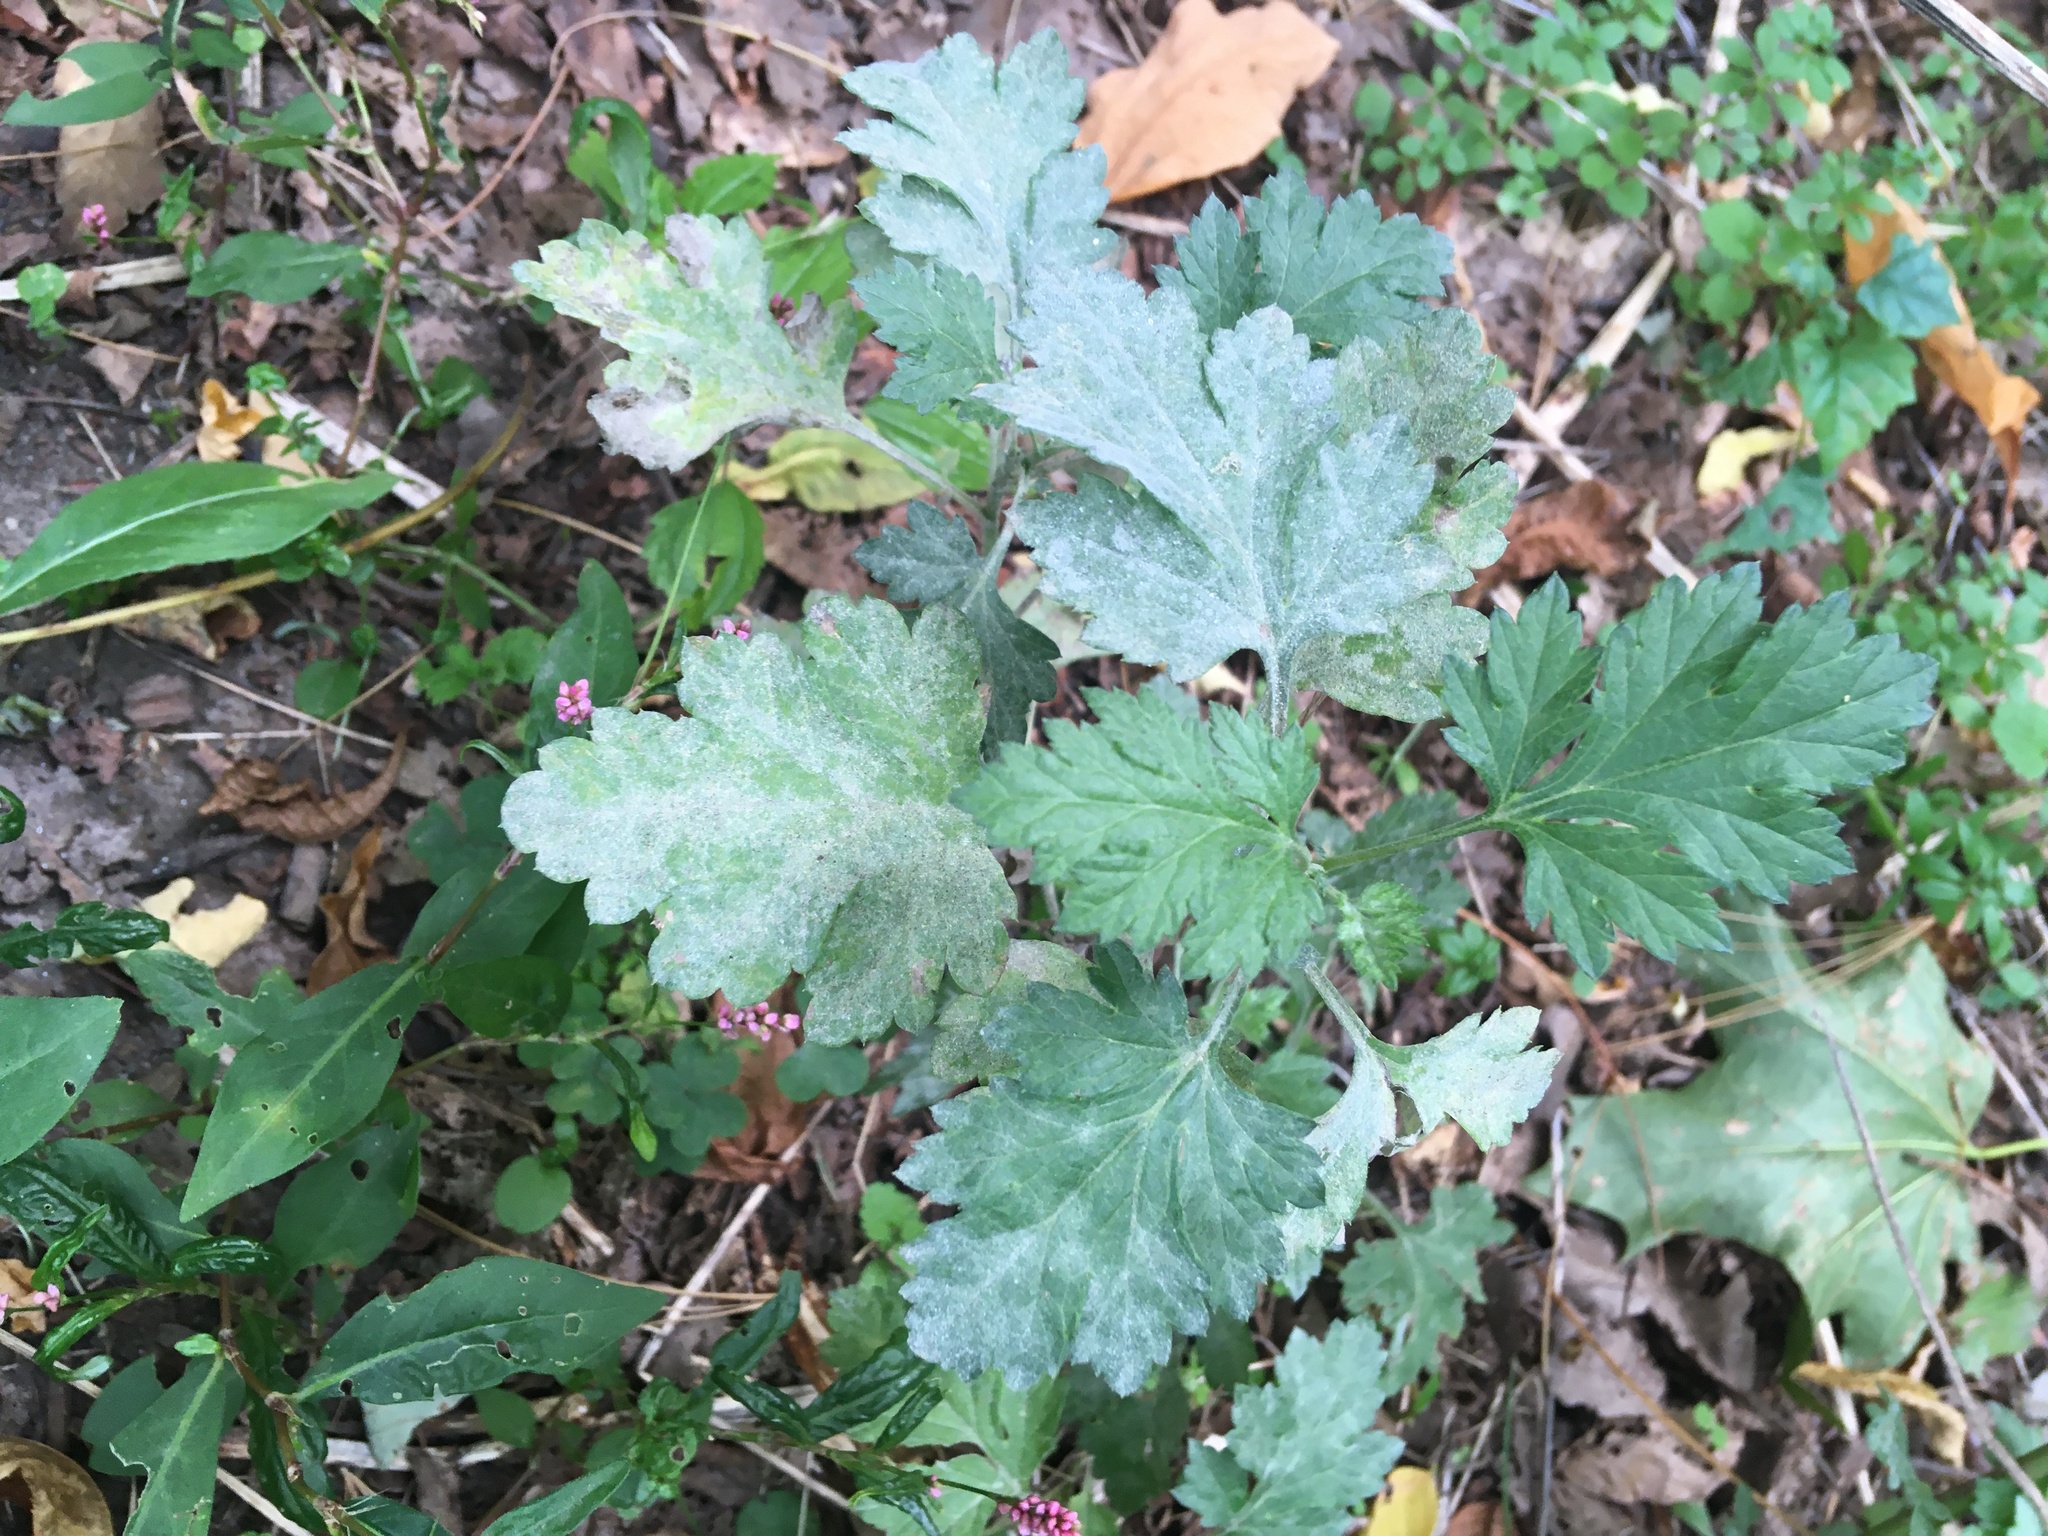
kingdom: Plantae
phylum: Tracheophyta
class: Magnoliopsida
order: Asterales
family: Asteraceae
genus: Artemisia
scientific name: Artemisia vulgaris
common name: Mugwort
